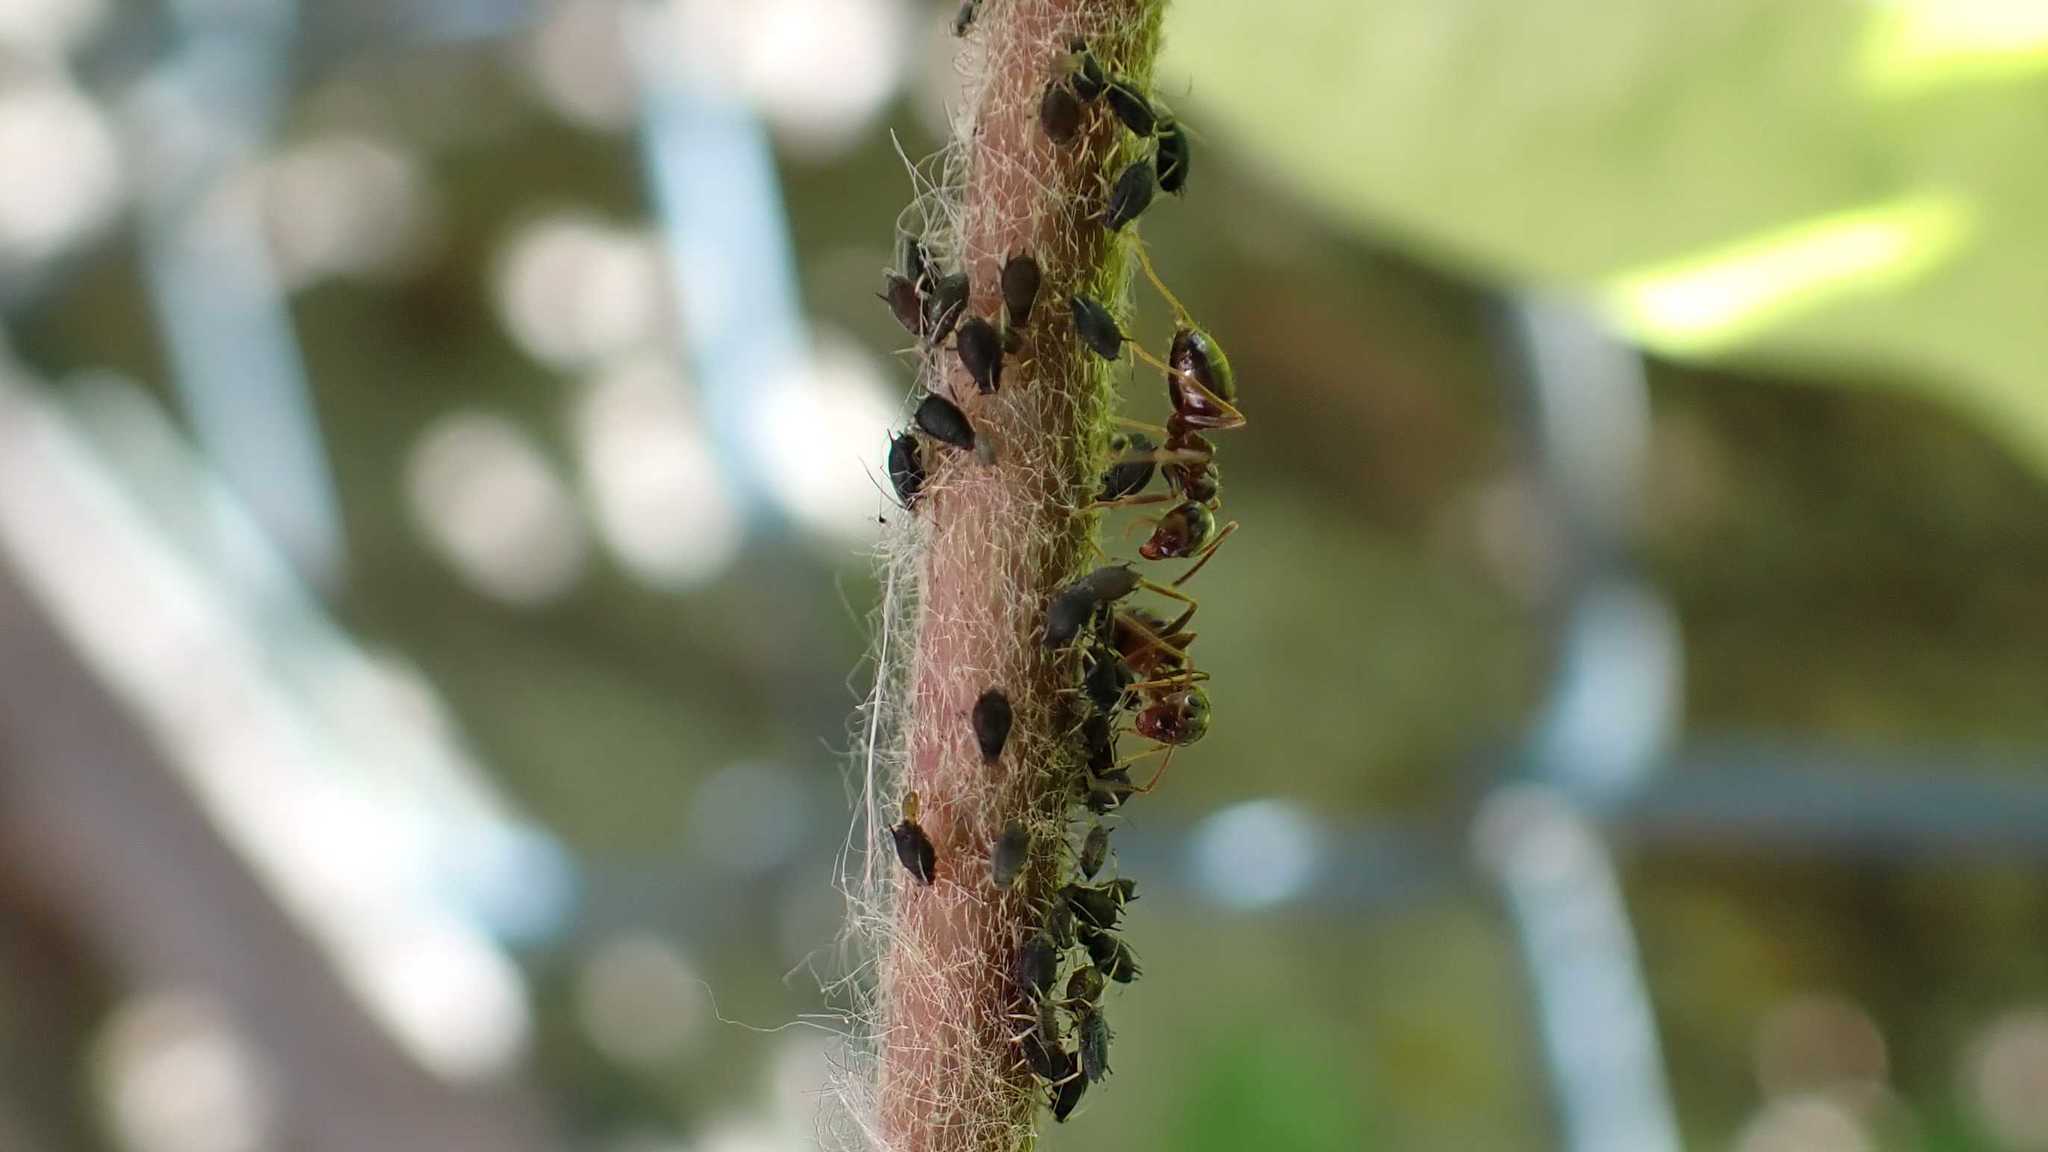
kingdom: Animalia
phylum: Arthropoda
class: Insecta
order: Hymenoptera
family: Formicidae
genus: Lasius
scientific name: Lasius
